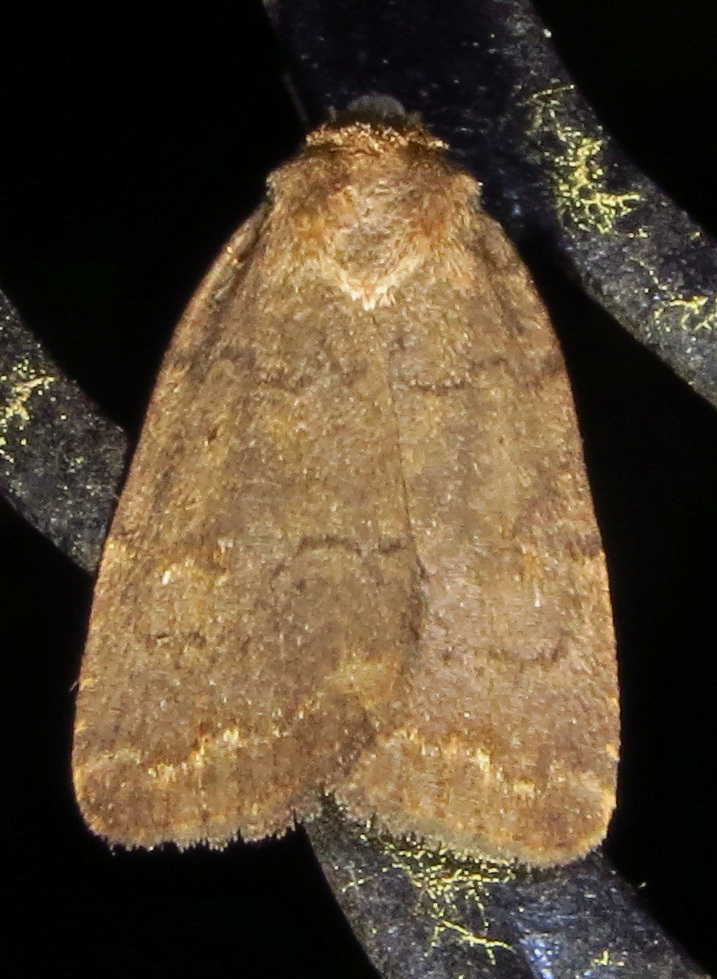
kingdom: Animalia
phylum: Arthropoda
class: Insecta
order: Lepidoptera
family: Noctuidae
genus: Athetis
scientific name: Athetis tarda
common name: Slowpoke moth
